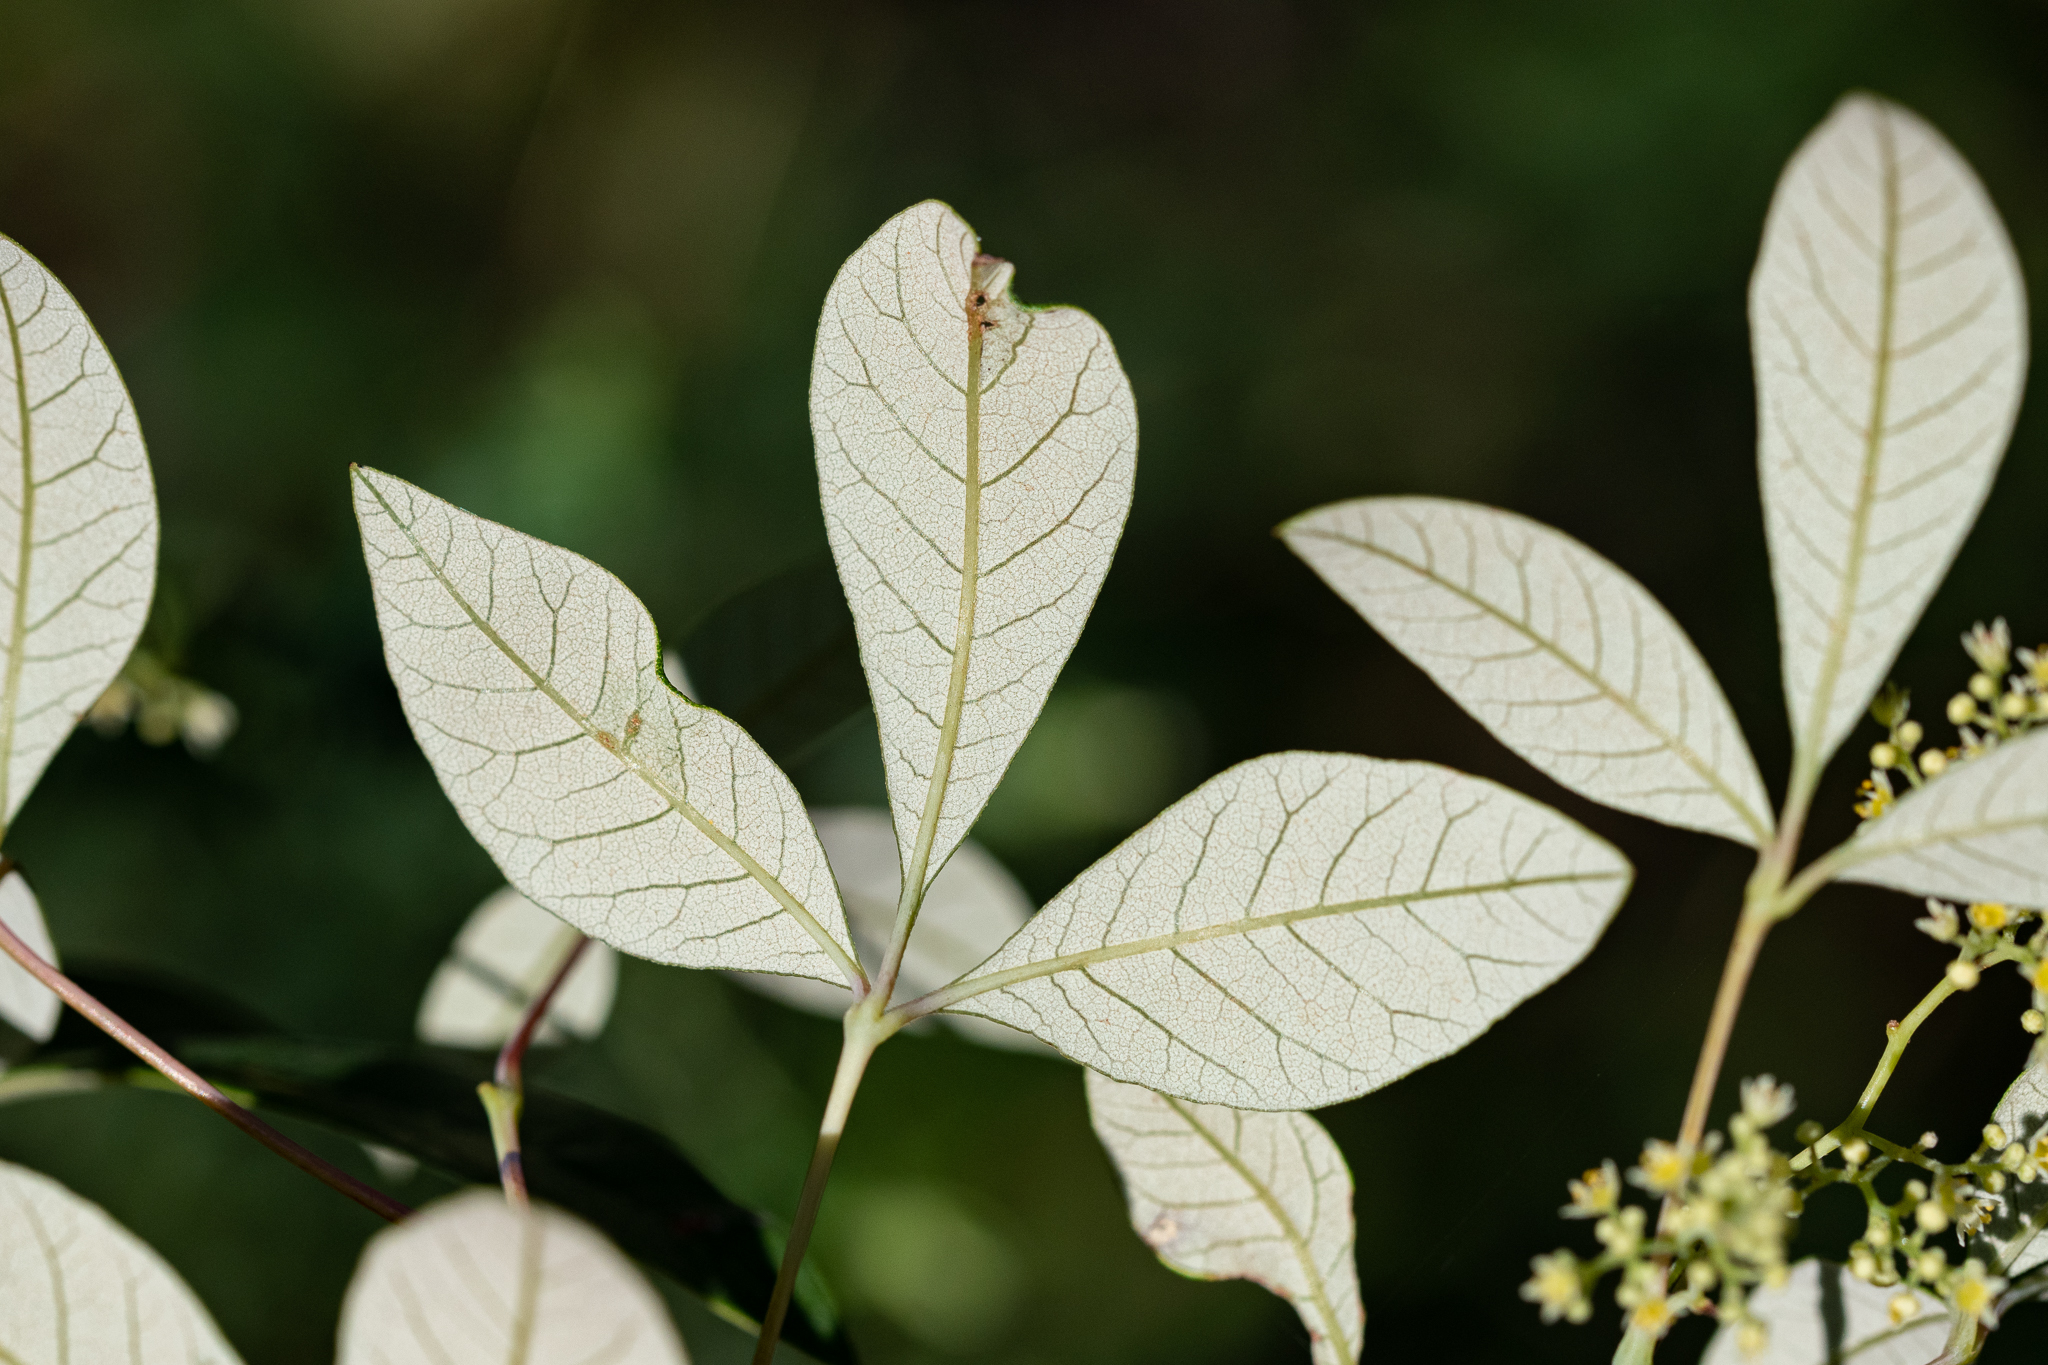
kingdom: Plantae
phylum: Tracheophyta
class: Magnoliopsida
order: Sapindales
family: Anacardiaceae
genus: Searsia
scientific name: Searsia tomentosa
